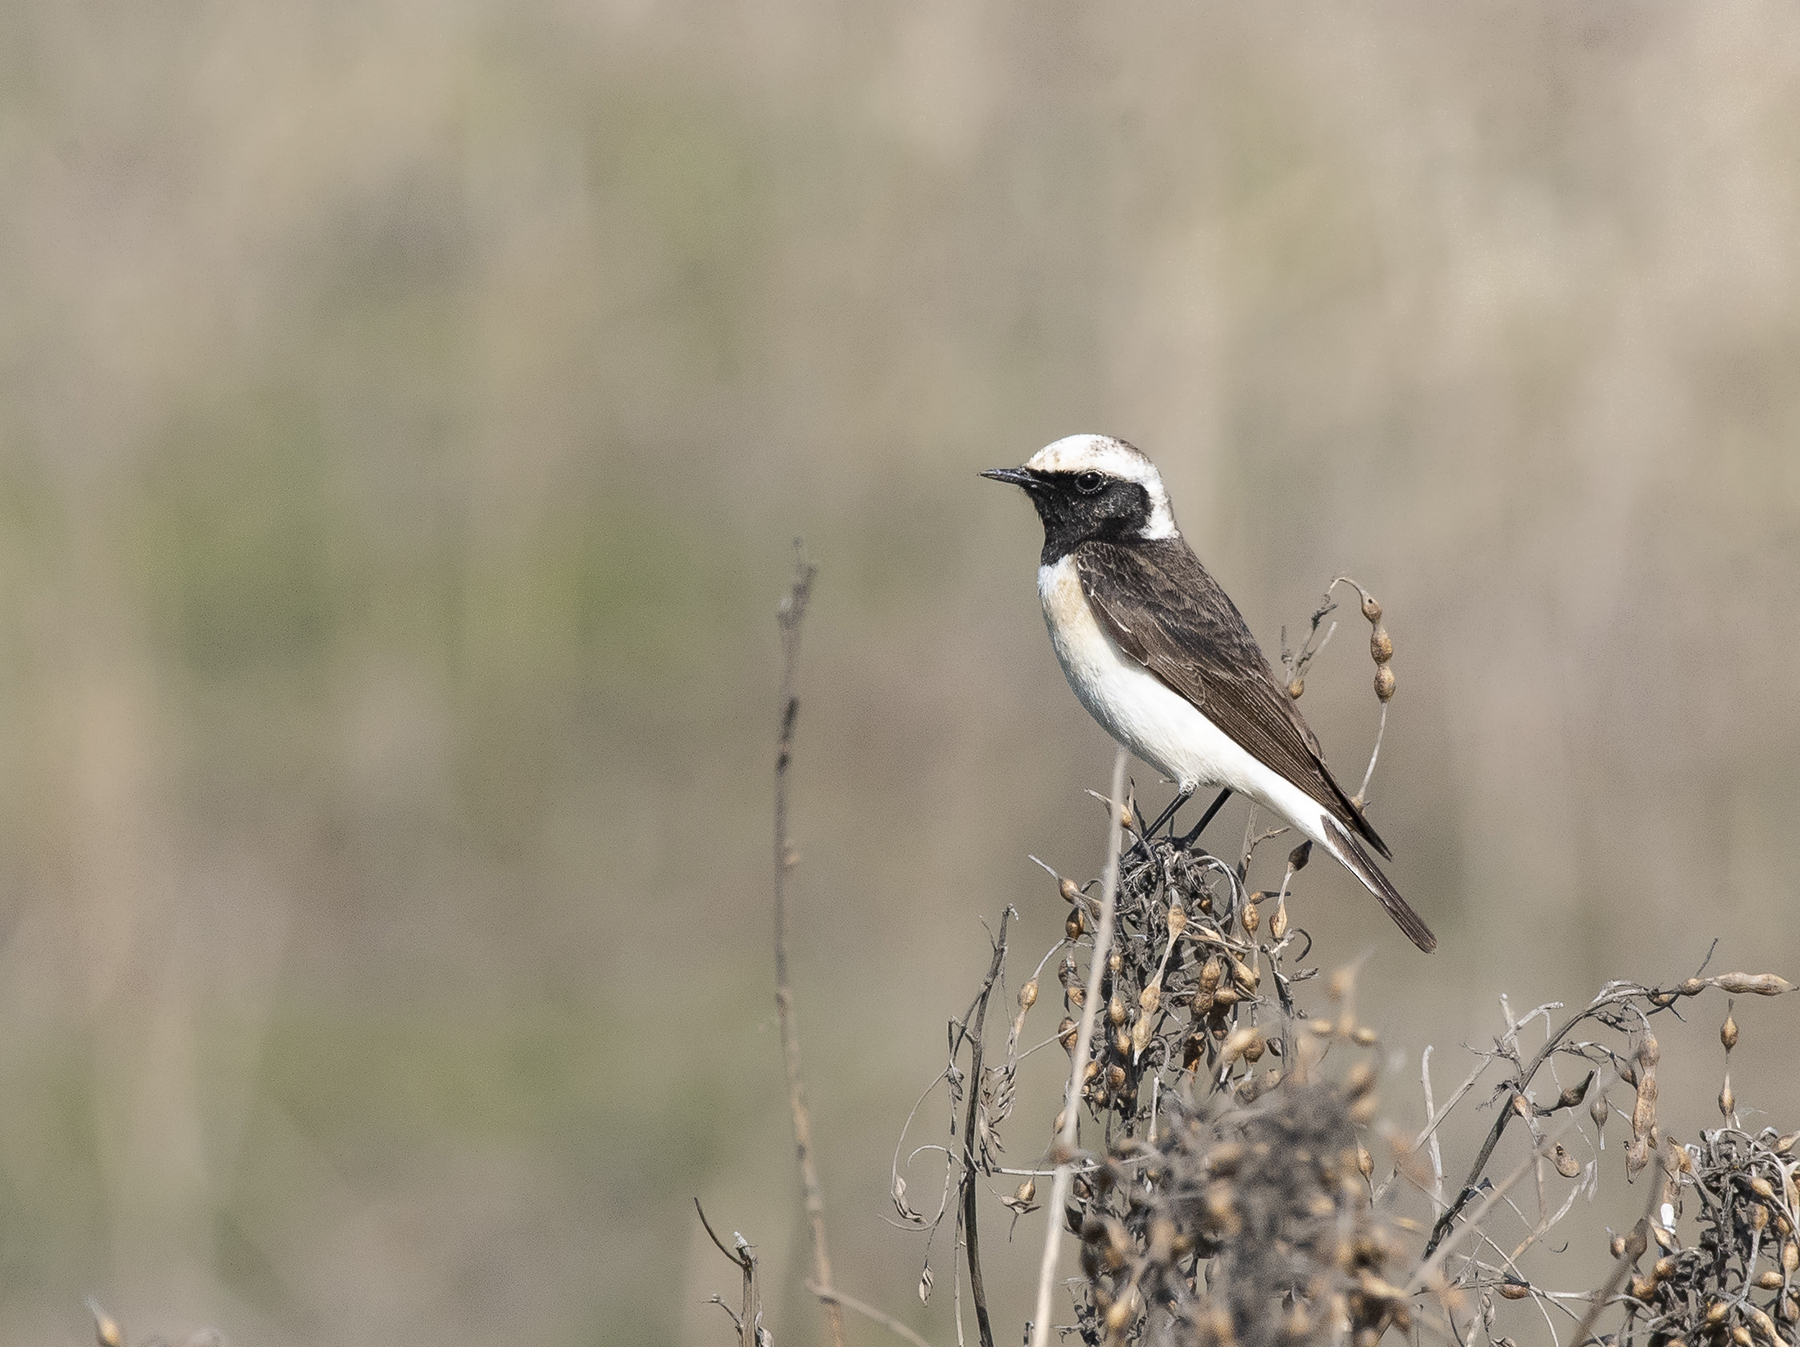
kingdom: Animalia
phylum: Chordata
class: Aves
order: Passeriformes
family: Muscicapidae
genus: Oenanthe
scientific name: Oenanthe pleschanka
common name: Pied wheatear
